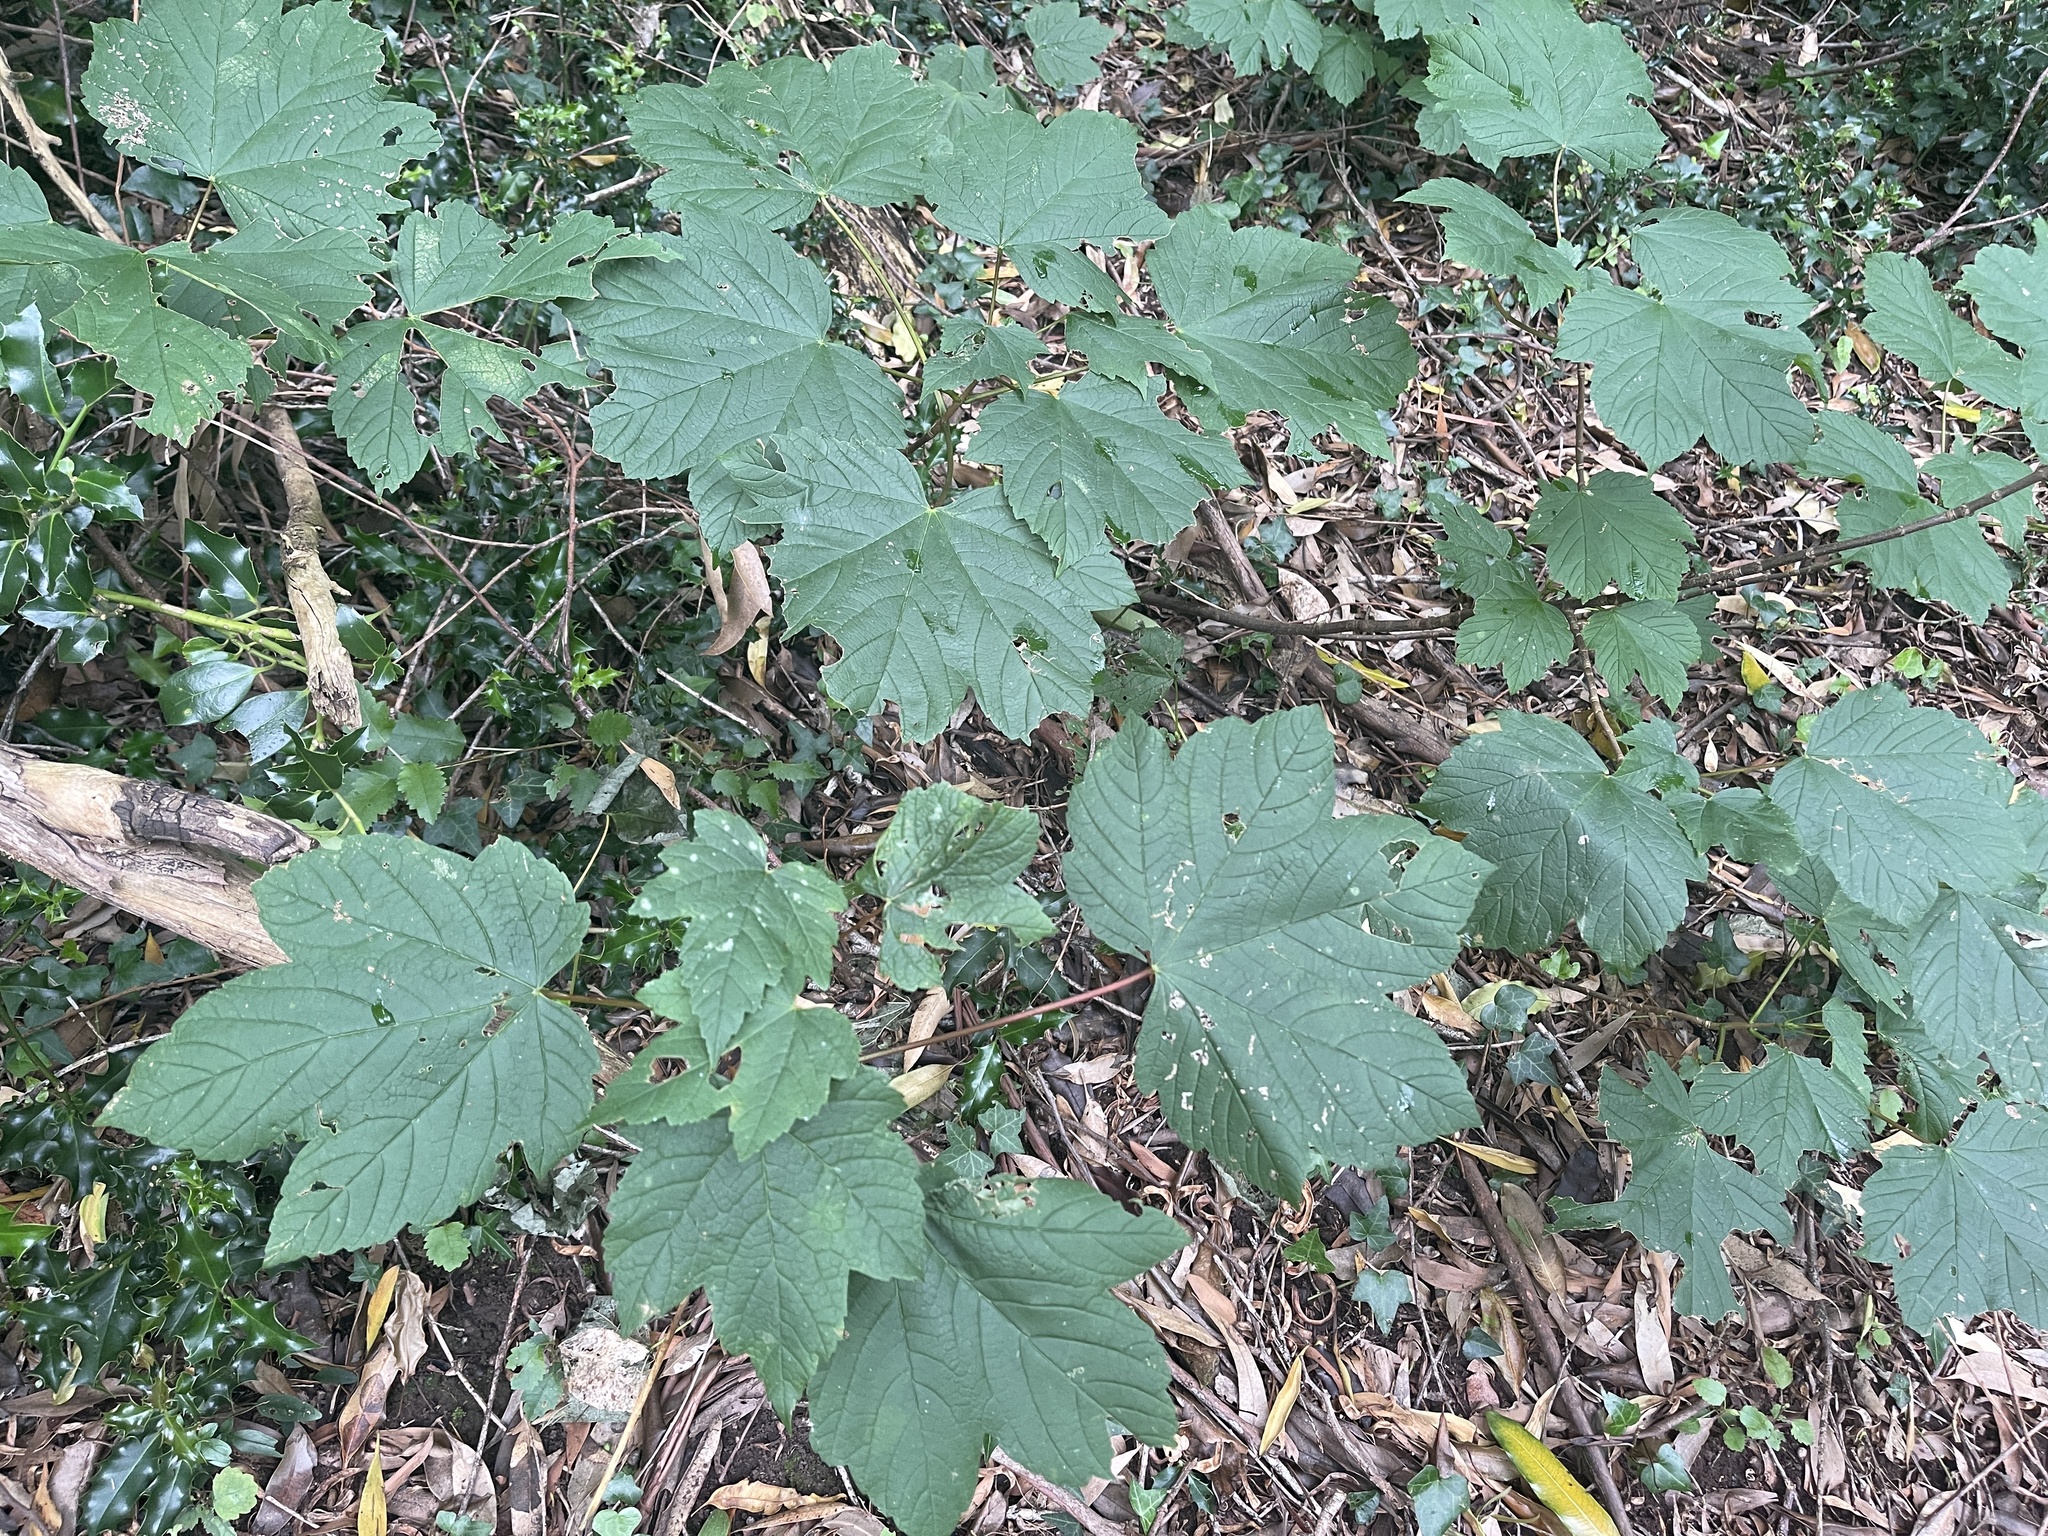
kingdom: Plantae
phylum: Tracheophyta
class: Magnoliopsida
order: Sapindales
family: Sapindaceae
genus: Acer
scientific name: Acer pseudoplatanus
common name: Sycamore
